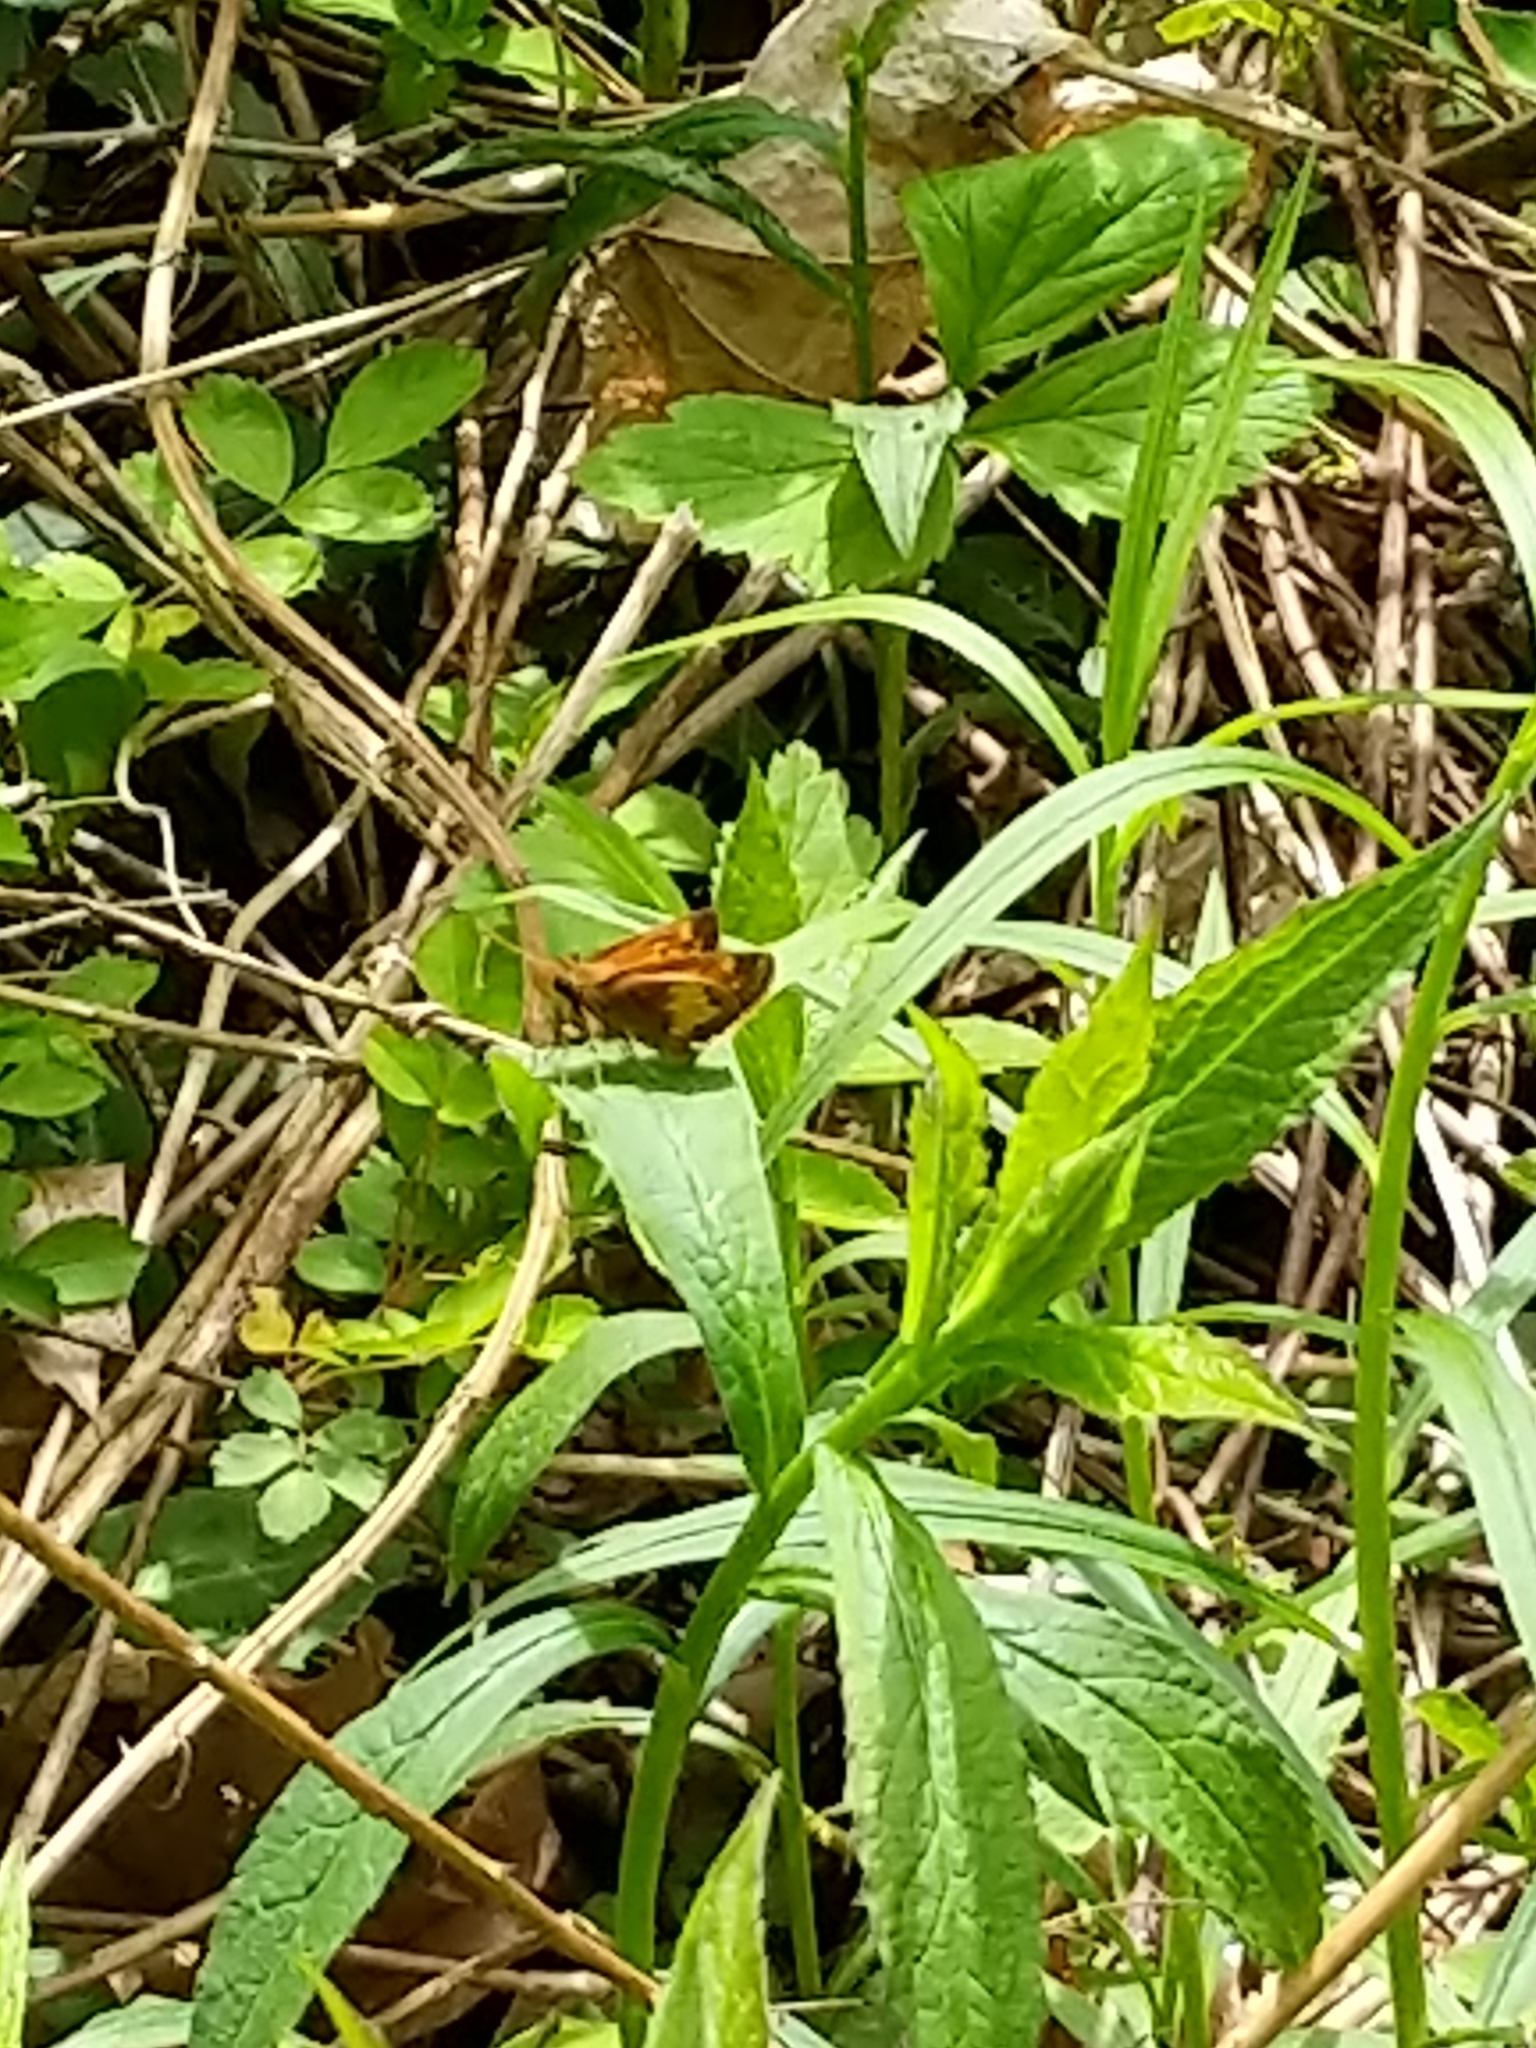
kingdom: Animalia
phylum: Arthropoda
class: Insecta
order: Lepidoptera
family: Hesperiidae
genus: Lon
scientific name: Lon hobomok
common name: Hobomok skipper
